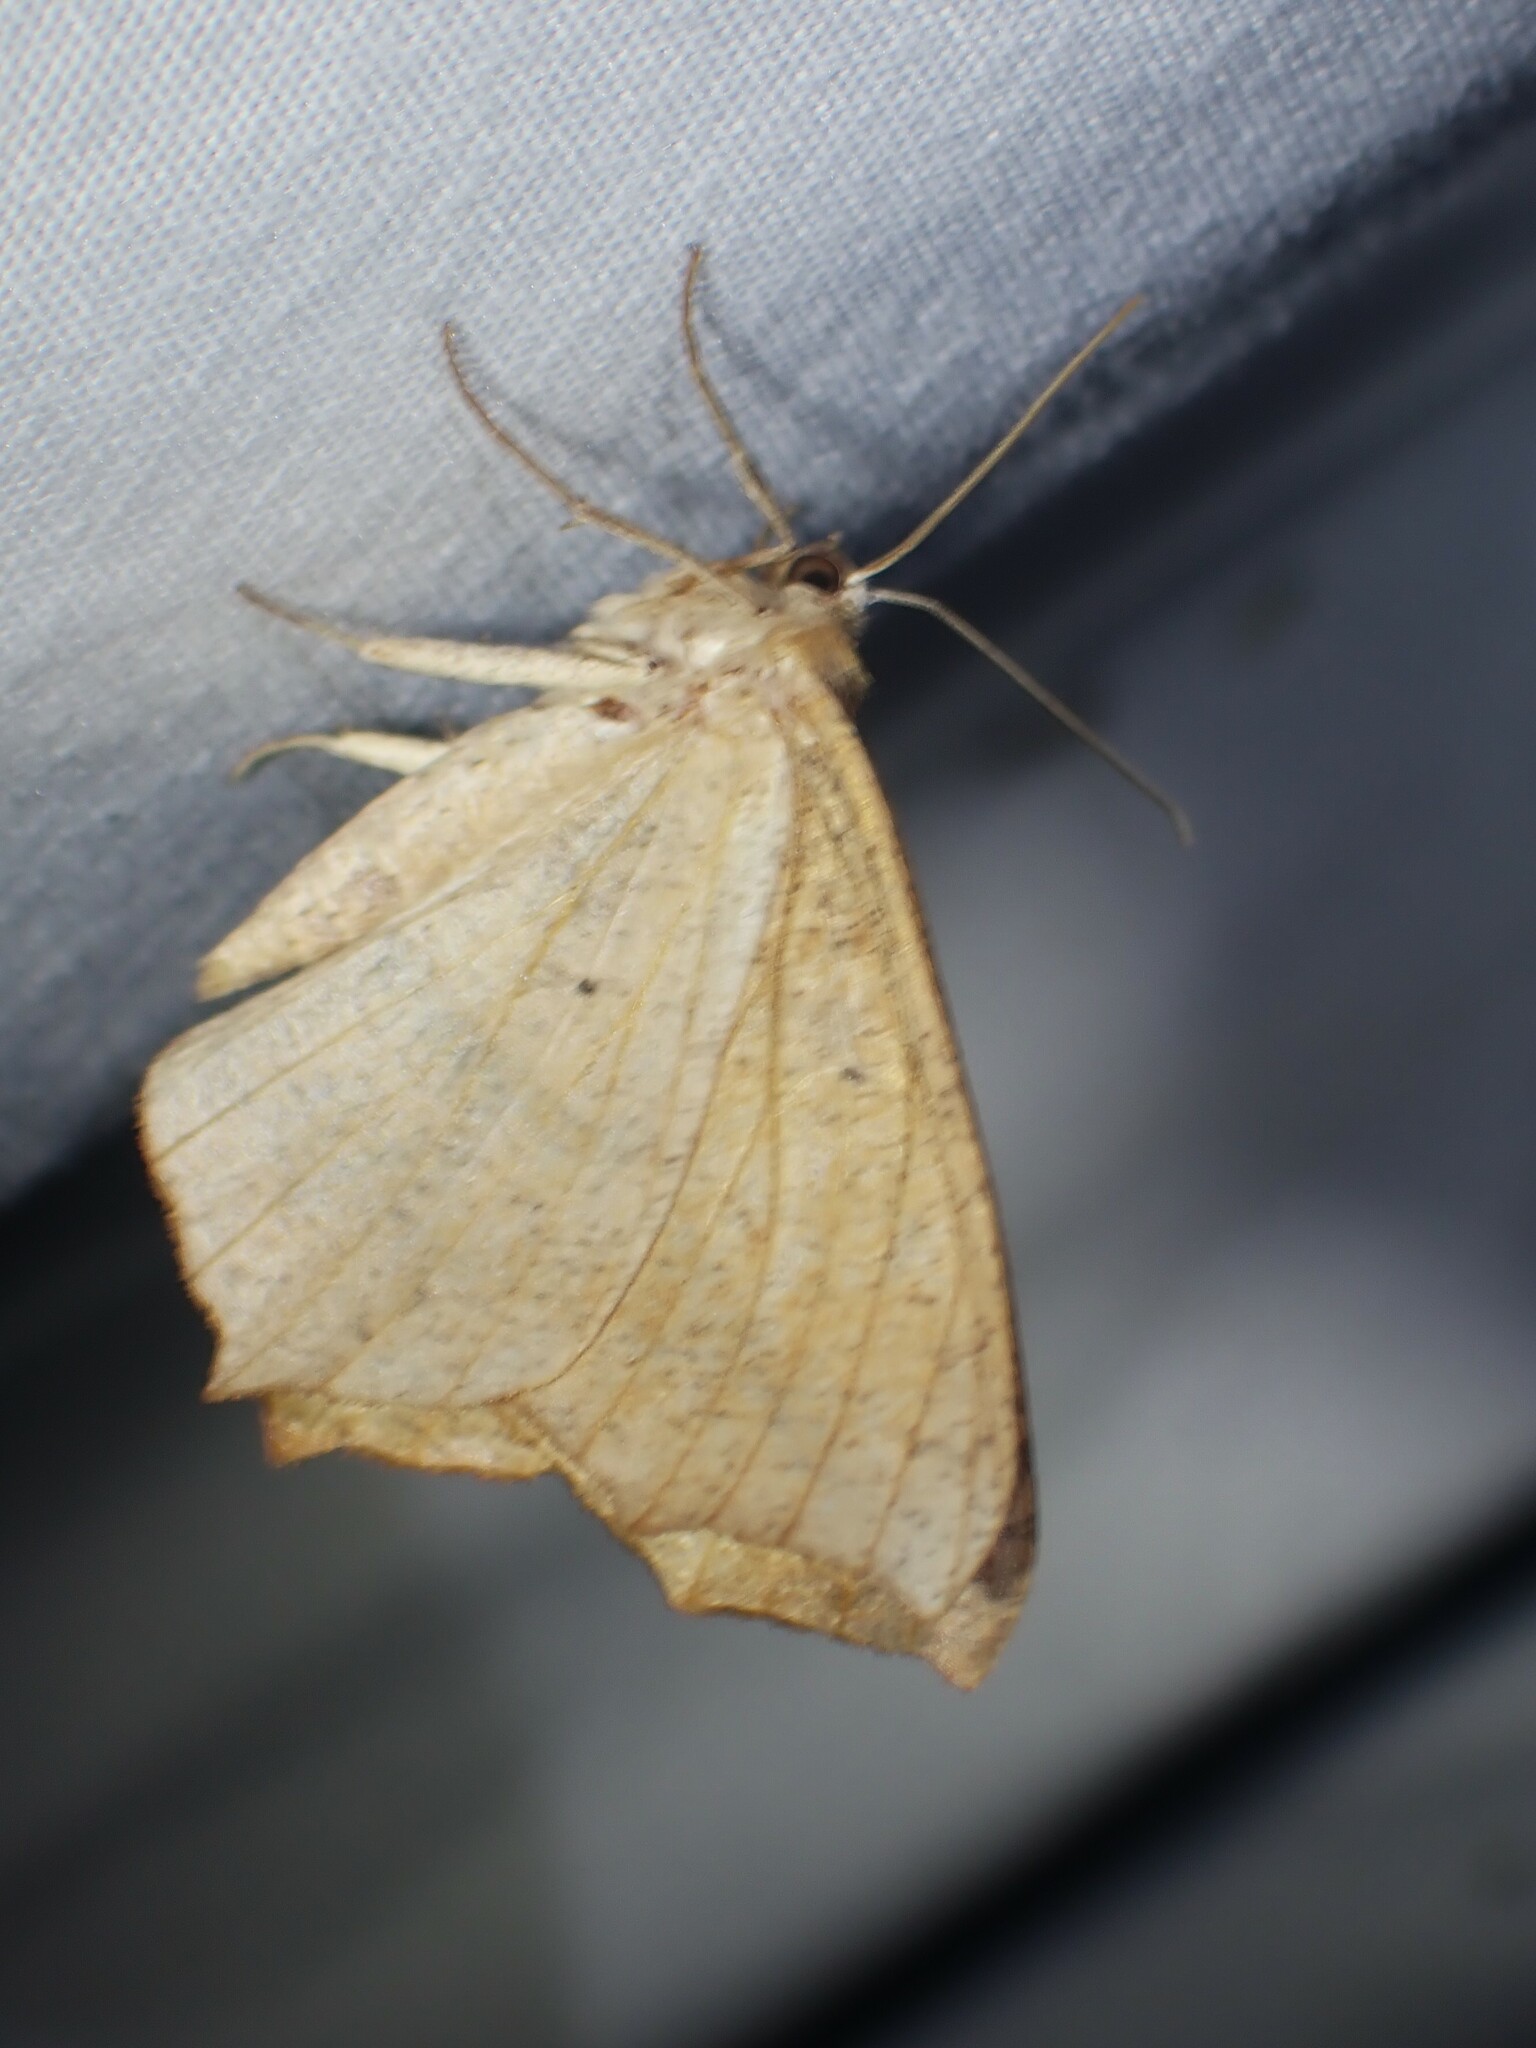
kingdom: Animalia
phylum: Arthropoda
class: Insecta
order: Lepidoptera
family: Geometridae
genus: Prochoerodes
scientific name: Prochoerodes lineola
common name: Large maple spanworm
